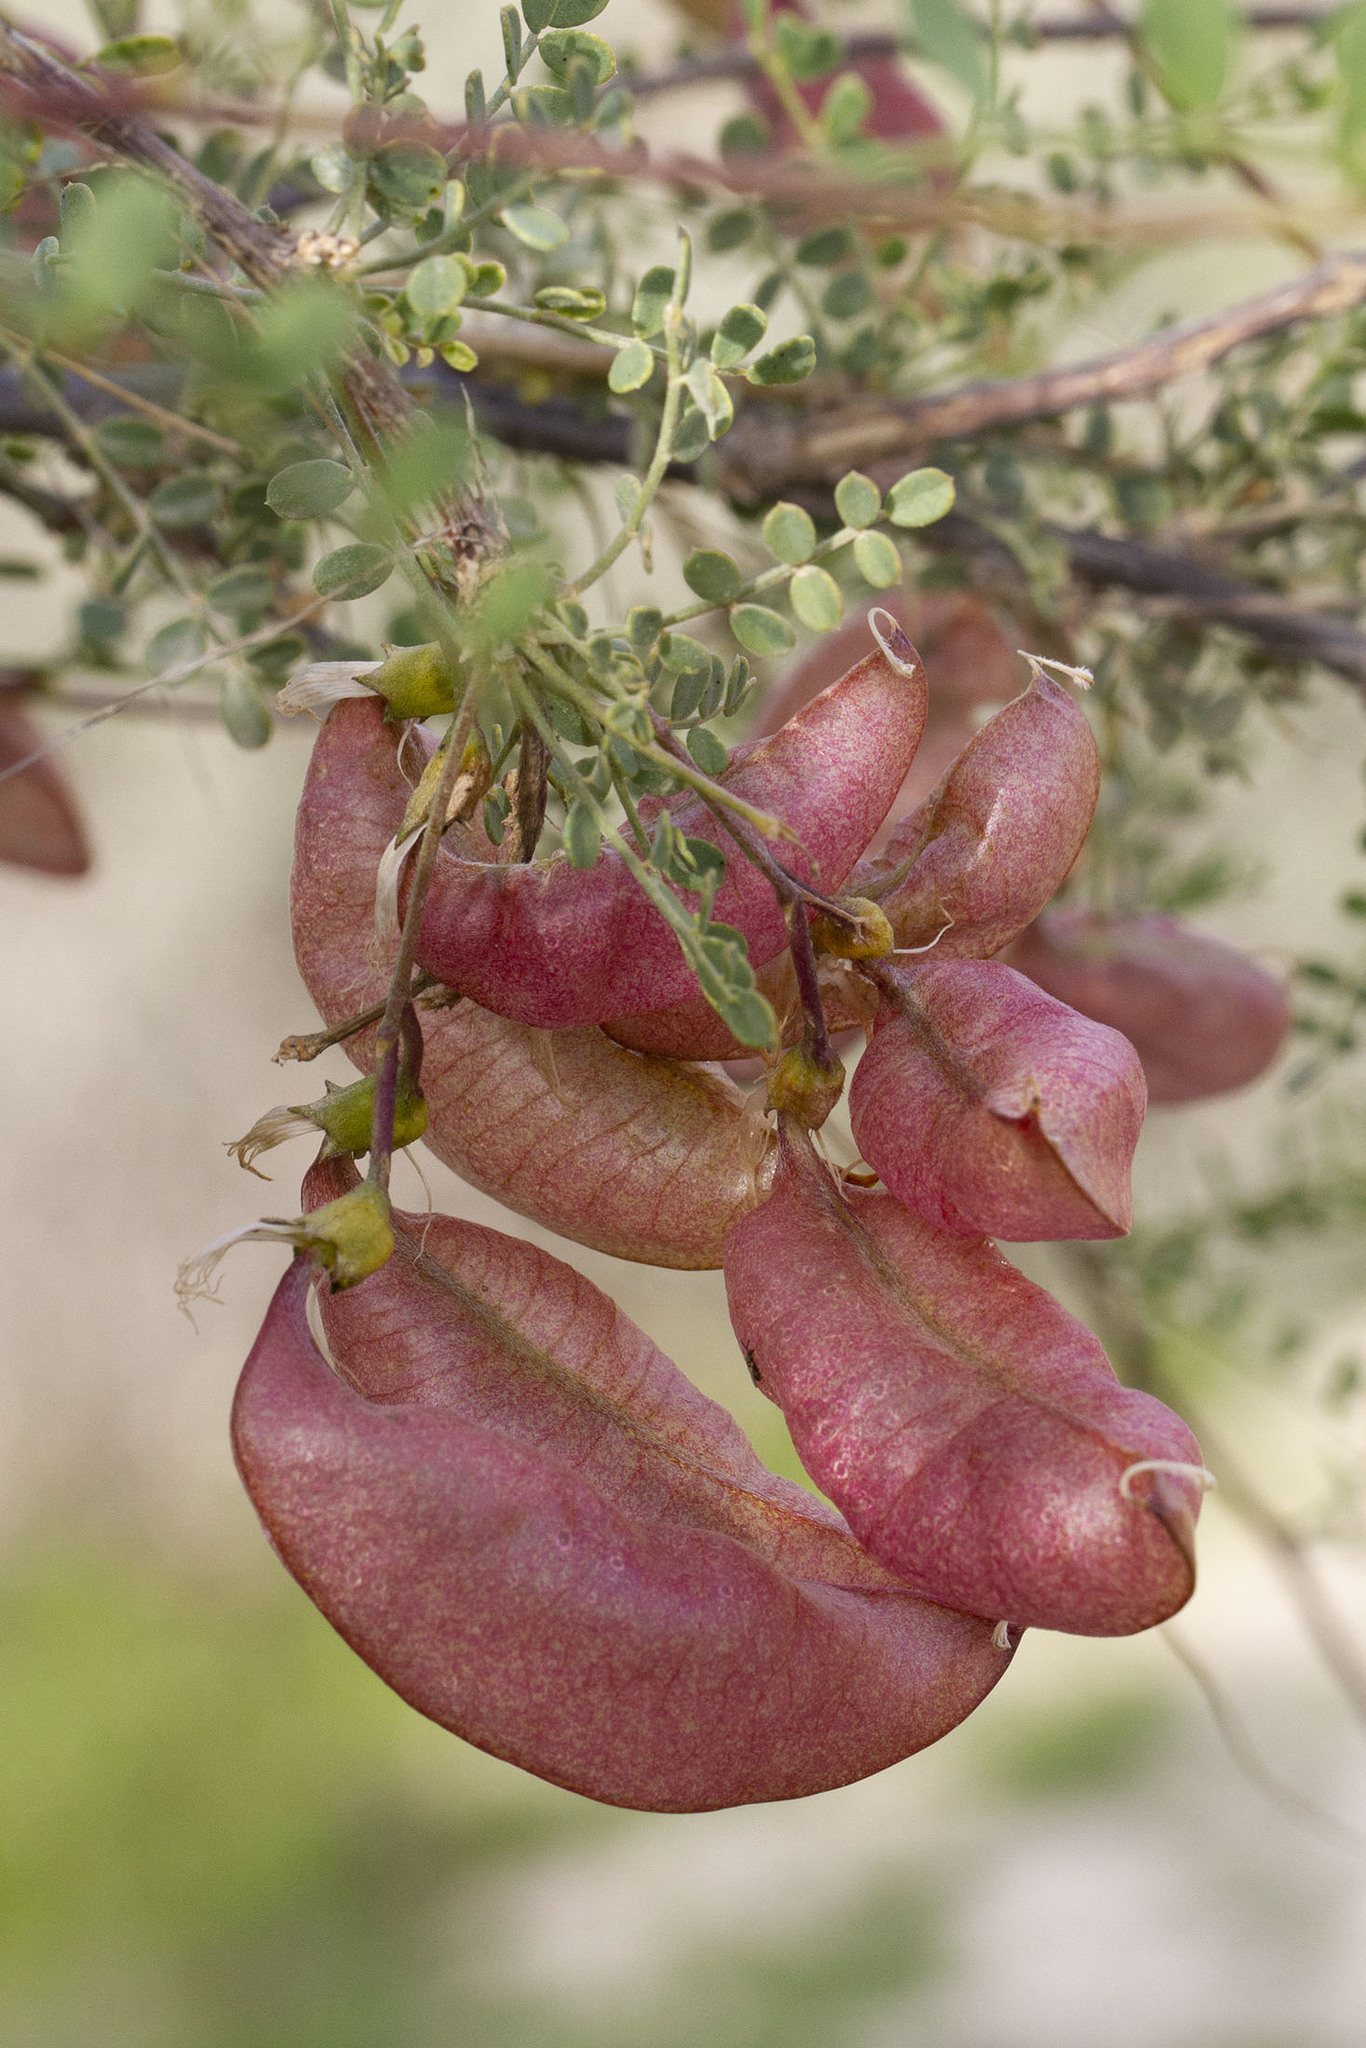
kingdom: Plantae
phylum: Tracheophyta
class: Magnoliopsida
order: Fabales
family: Fabaceae
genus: Colutea
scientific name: Colutea istria
